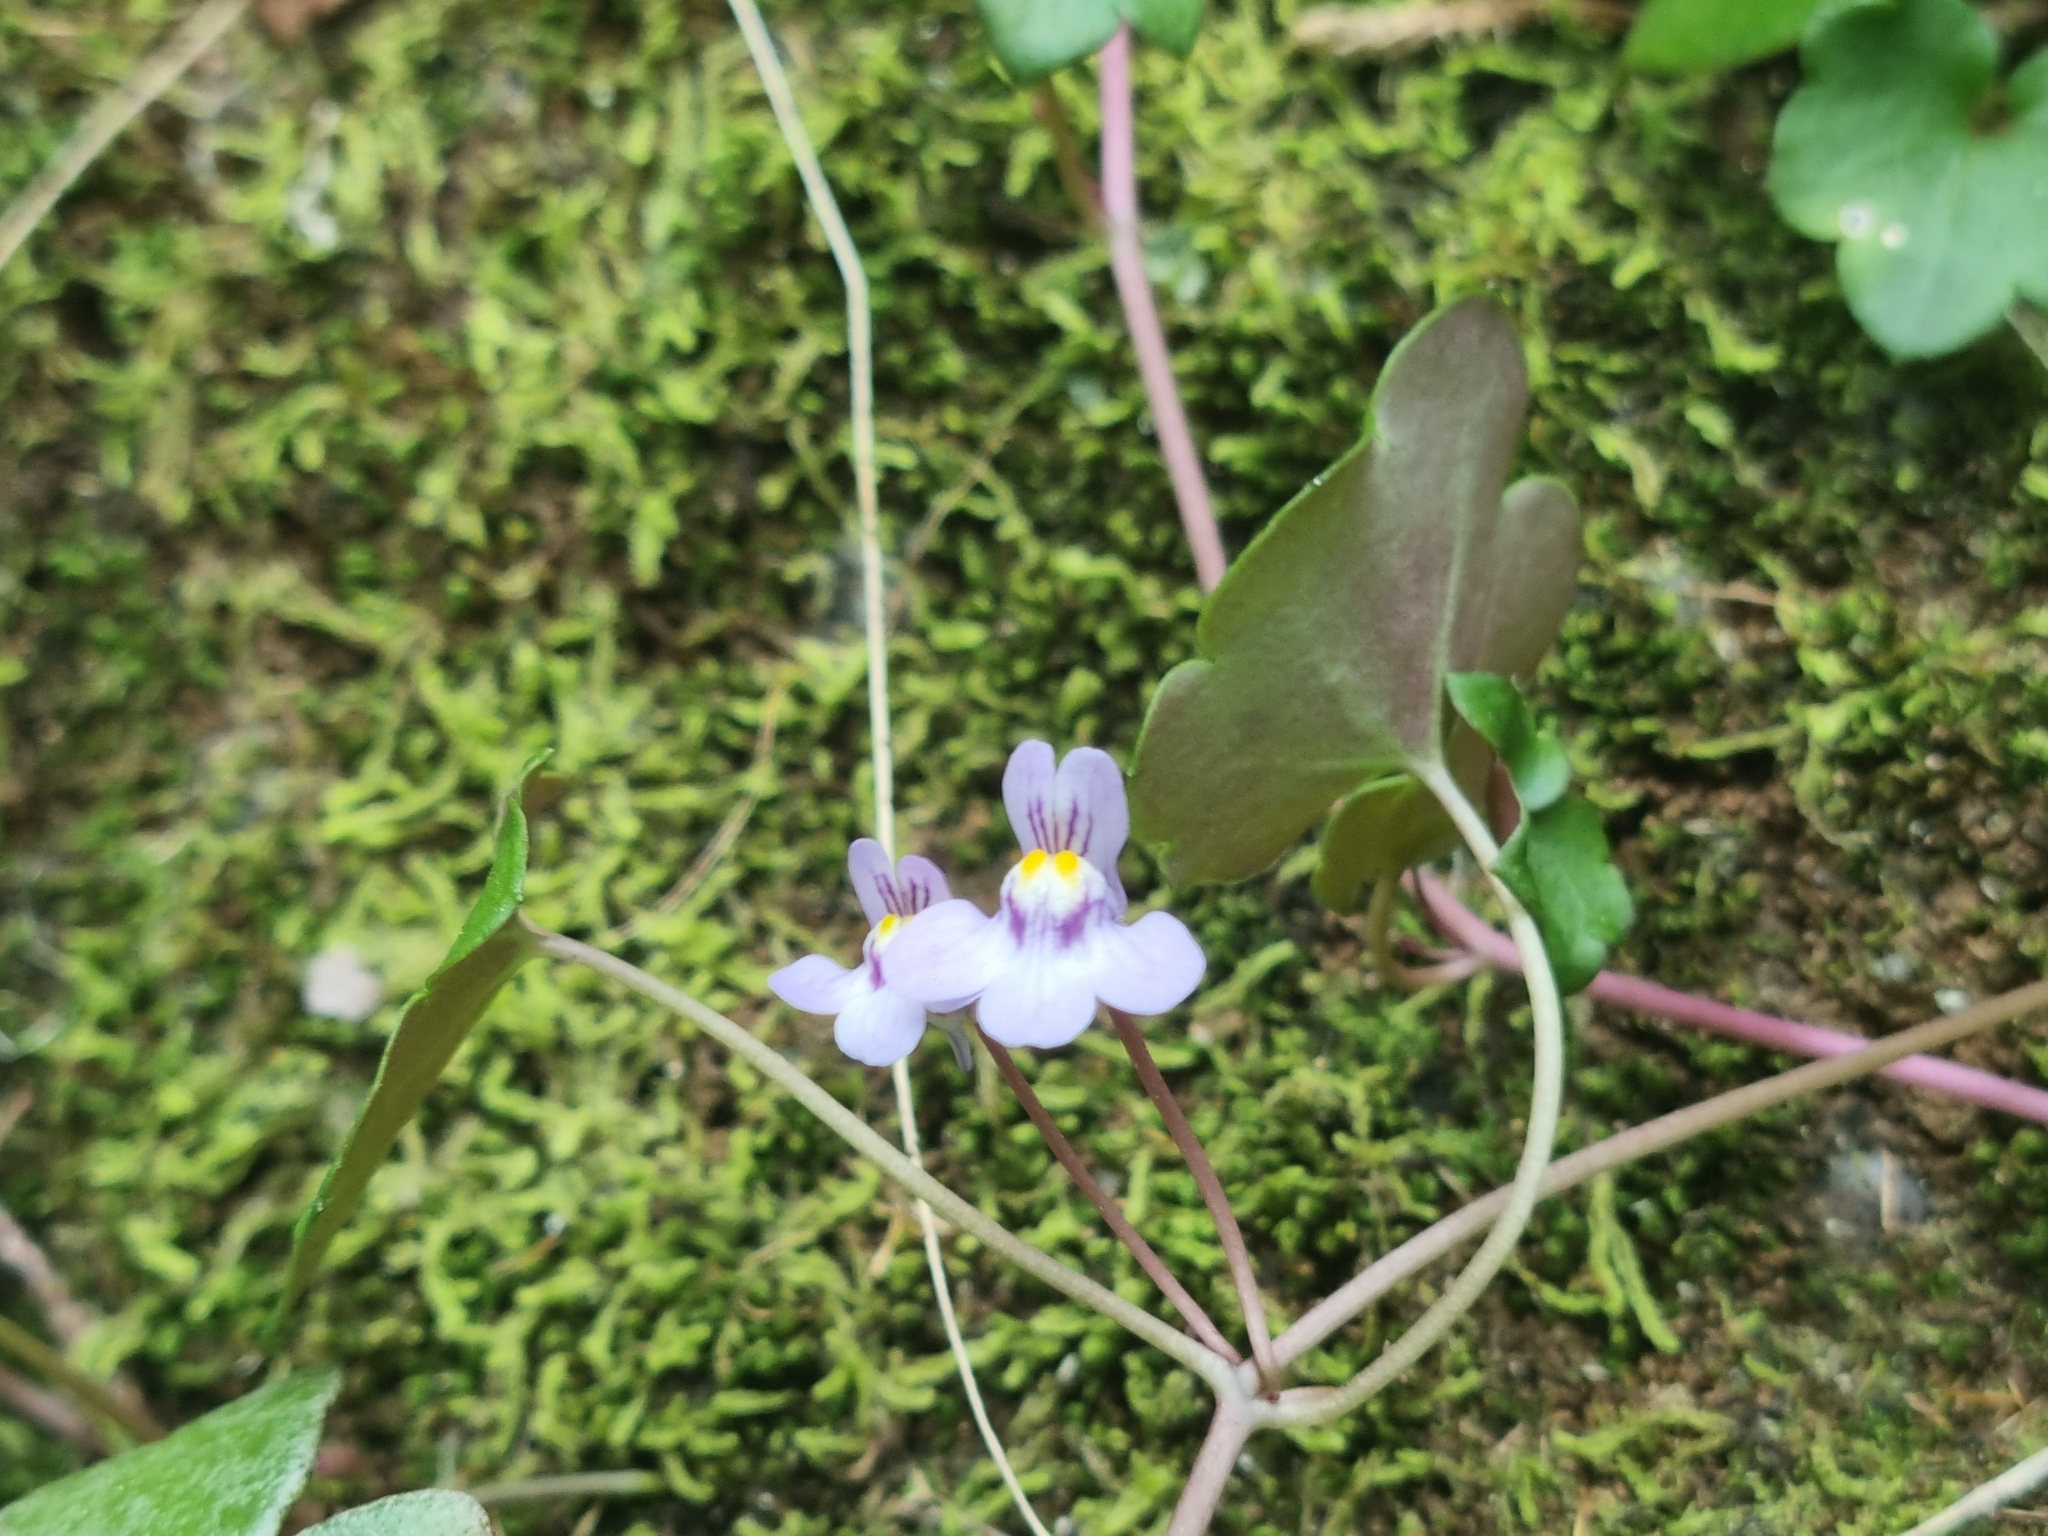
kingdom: Plantae
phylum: Tracheophyta
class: Magnoliopsida
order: Lamiales
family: Plantaginaceae
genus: Cymbalaria
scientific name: Cymbalaria muralis
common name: Ivy-leaved toadflax
